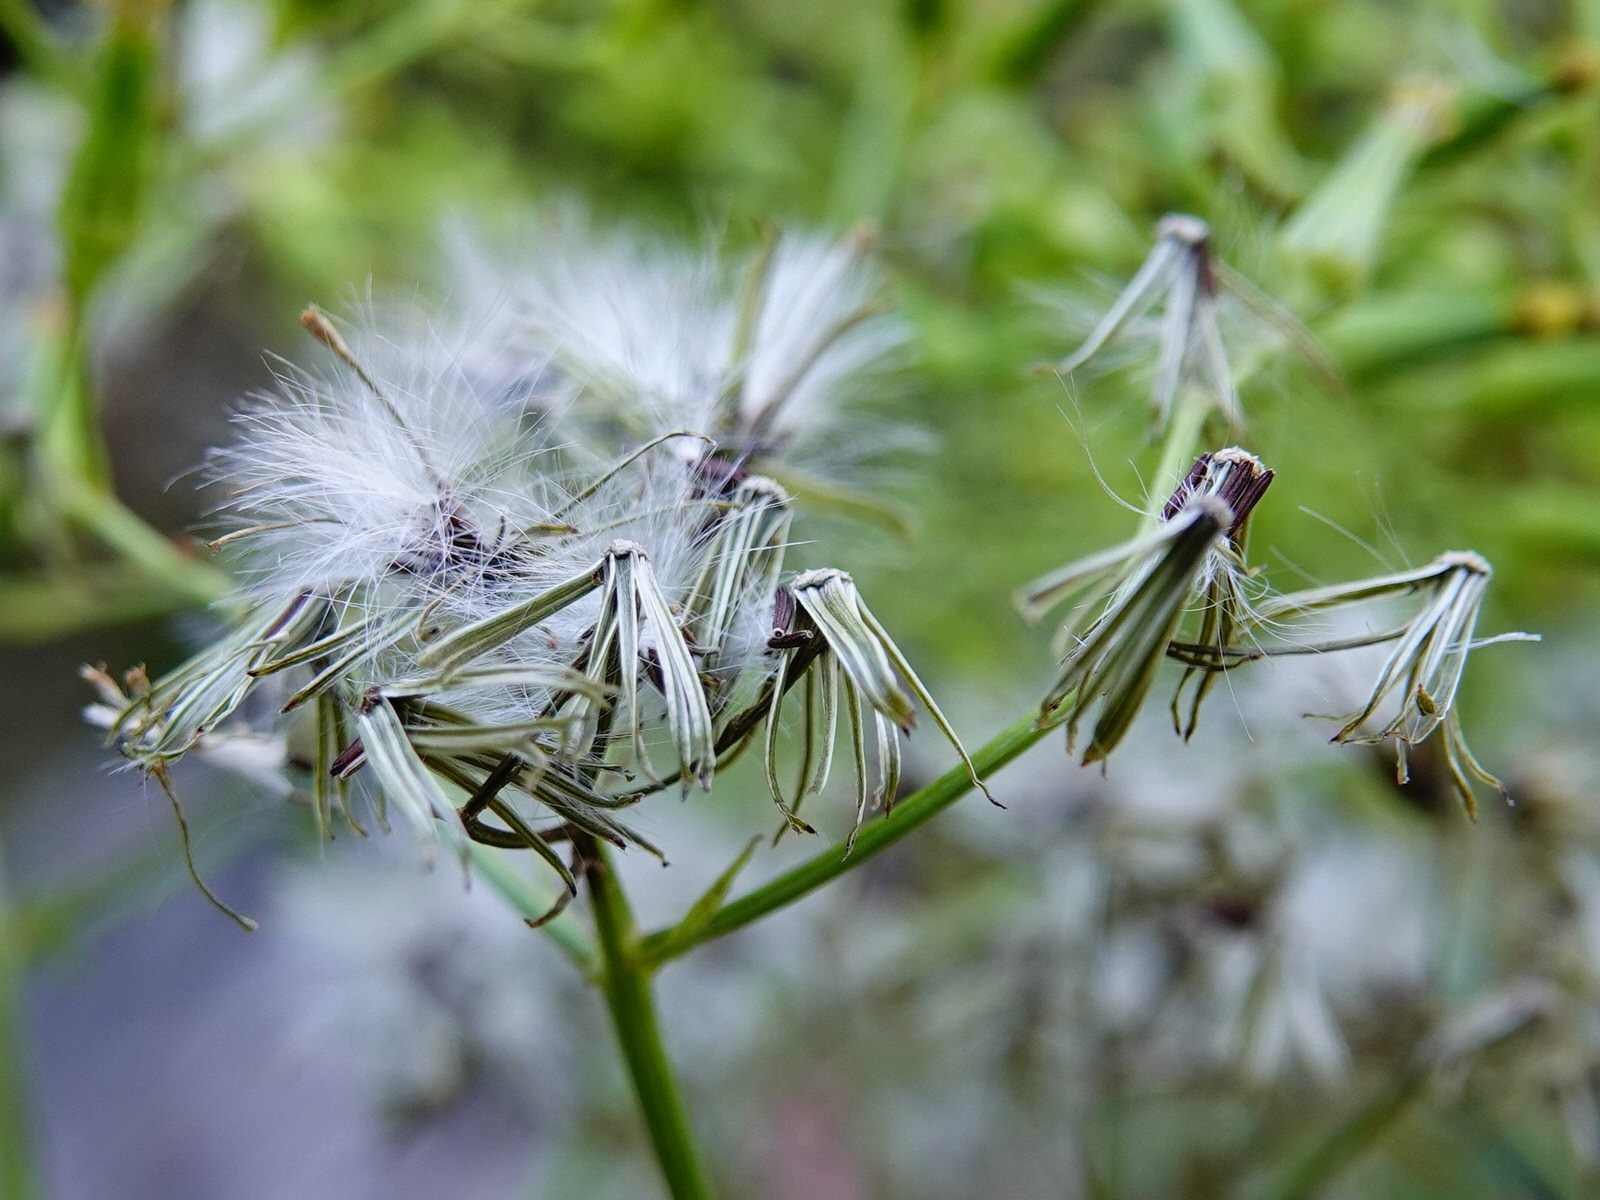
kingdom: Plantae
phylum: Tracheophyta
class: Magnoliopsida
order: Asterales
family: Asteraceae
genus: Senecio
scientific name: Senecio bipinnatisectus
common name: Australian fireweed
